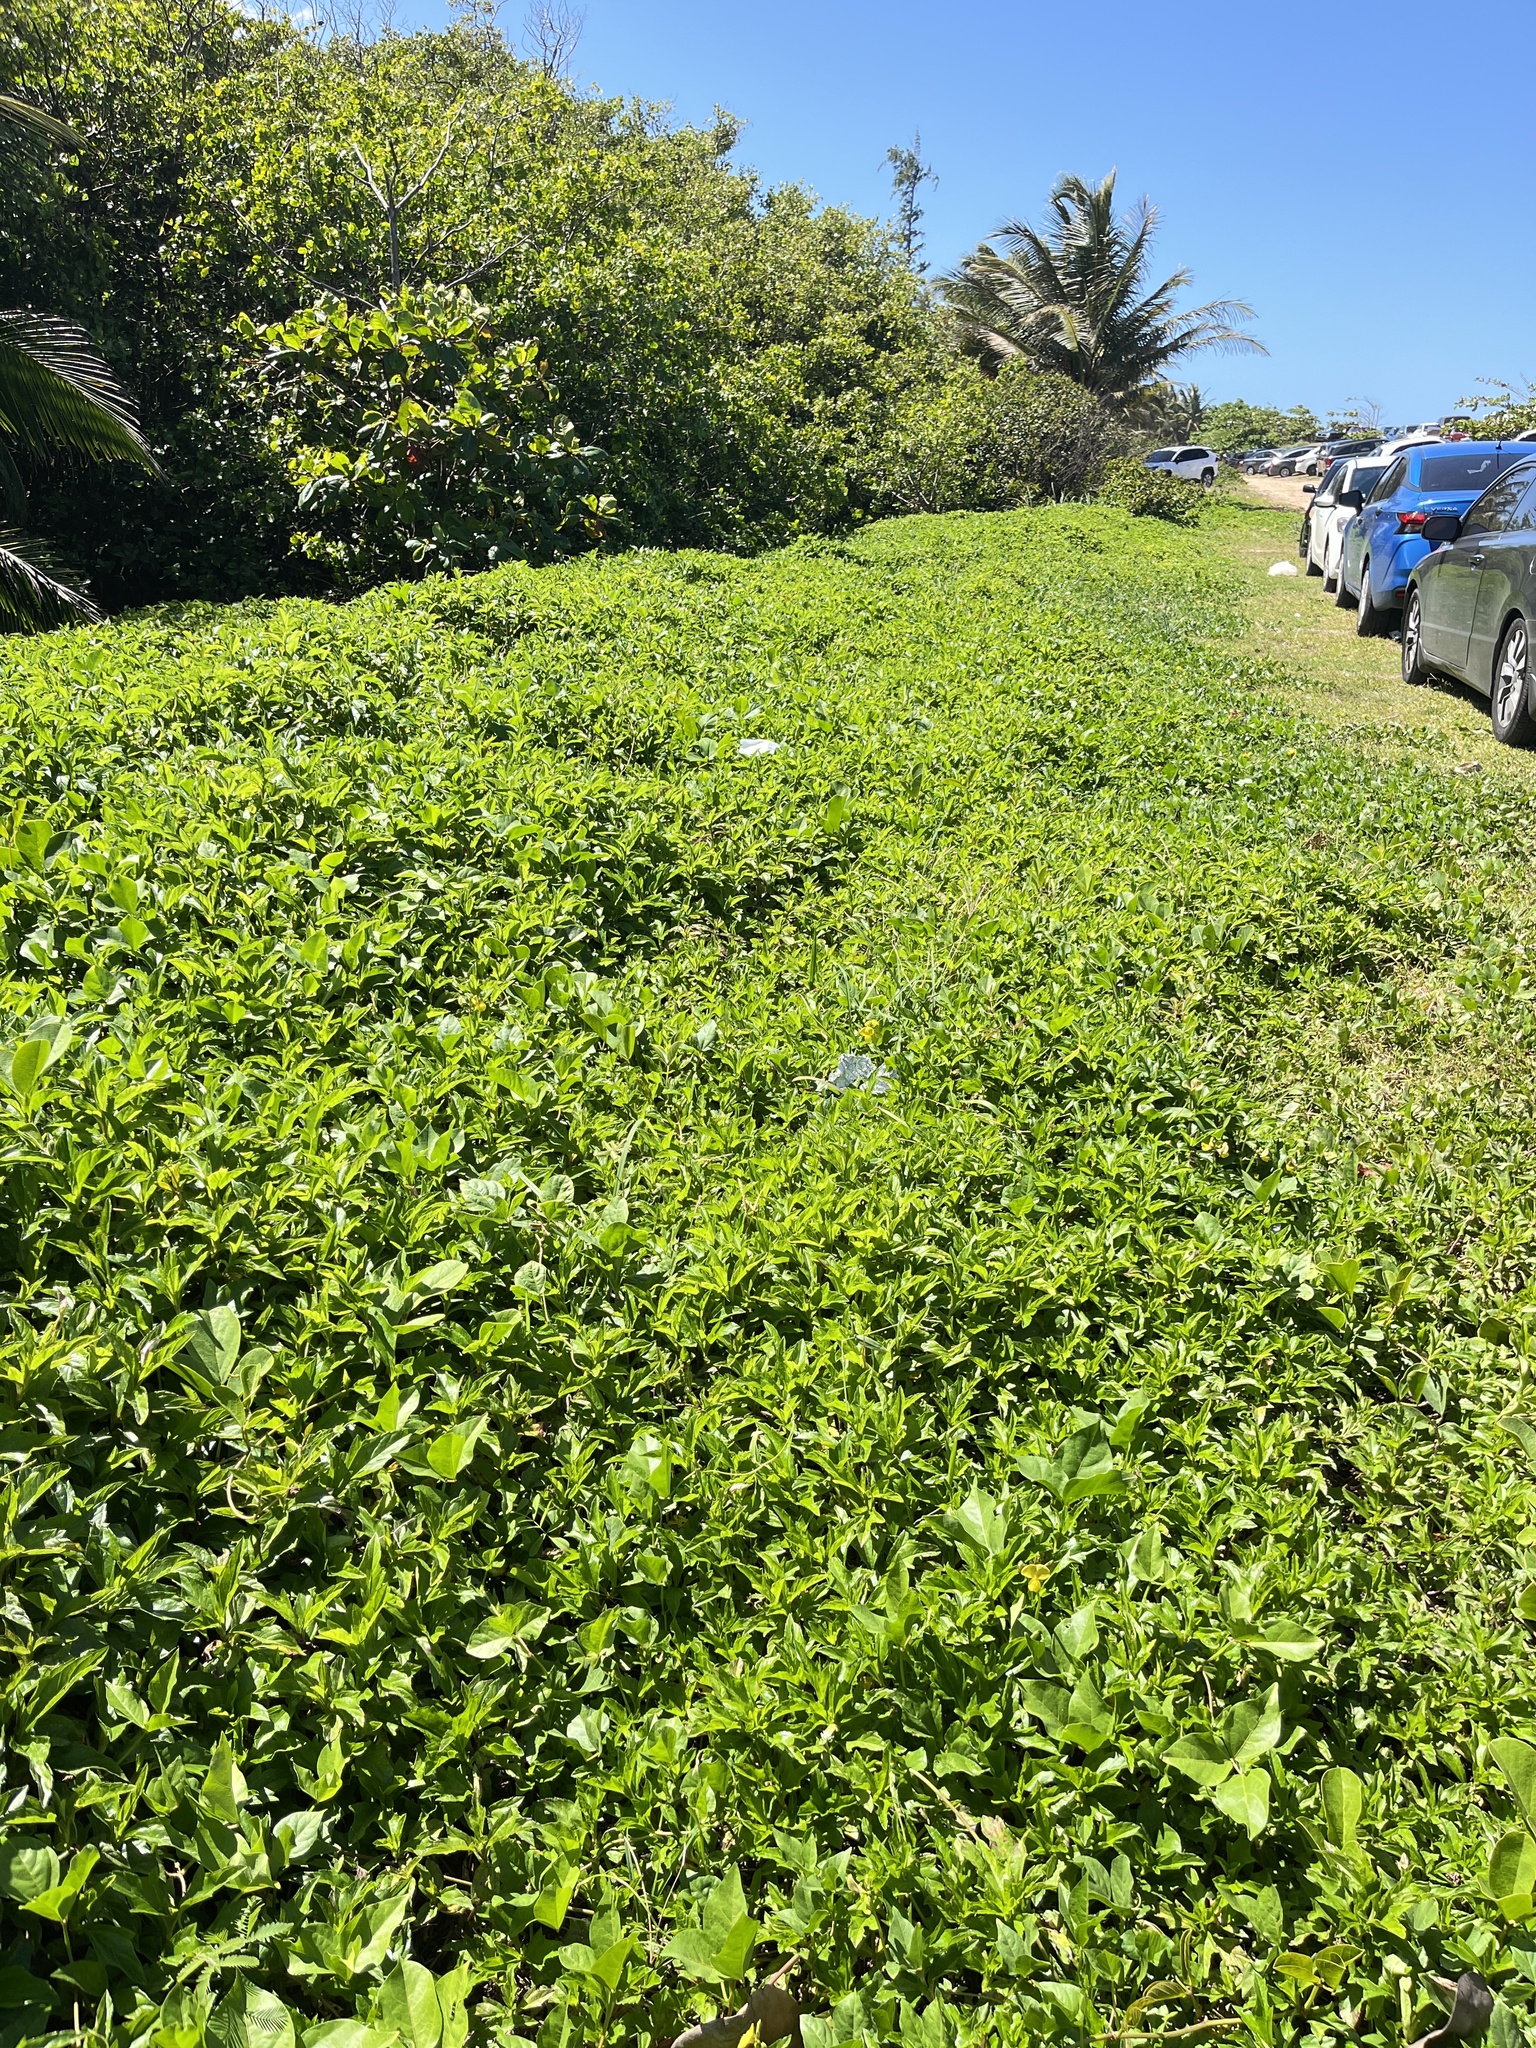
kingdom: Plantae
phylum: Tracheophyta
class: Magnoliopsida
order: Asterales
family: Asteraceae
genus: Sphagneticola
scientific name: Sphagneticola trilobata
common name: Bay biscayne creeping-oxeye
